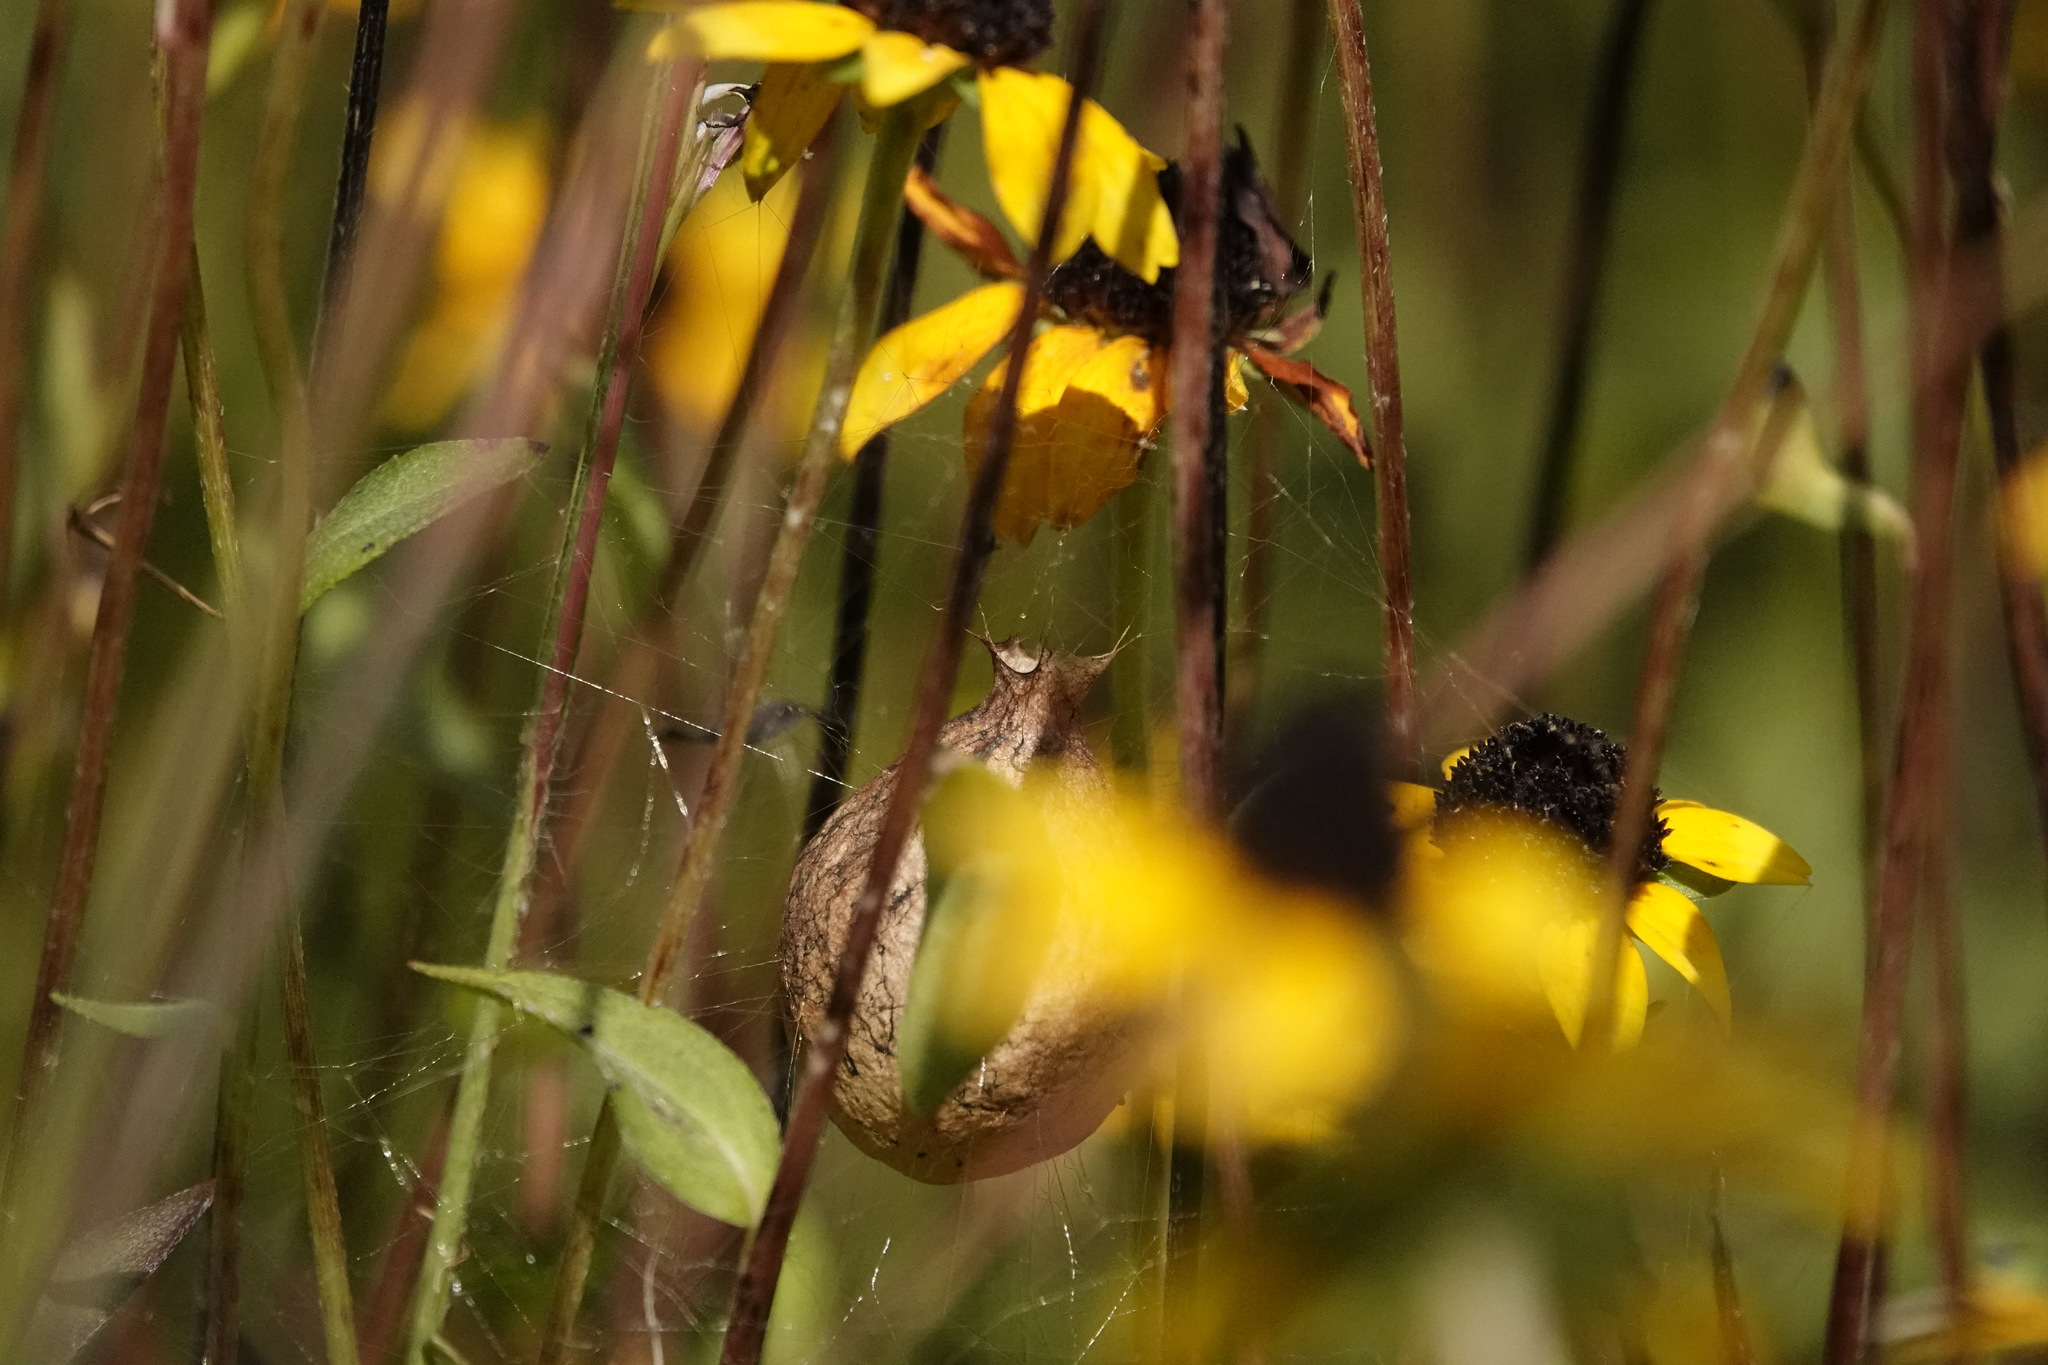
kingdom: Animalia
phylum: Arthropoda
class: Arachnida
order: Araneae
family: Araneidae
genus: Argiope
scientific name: Argiope aurantia
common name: Orb weavers
